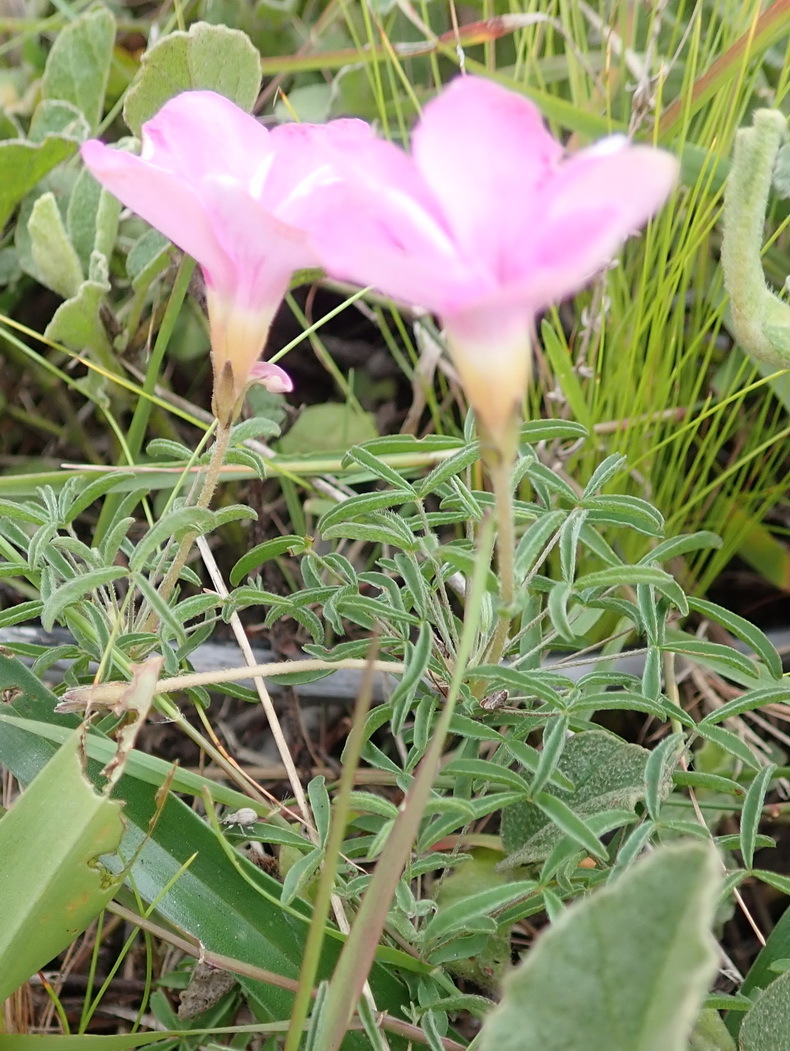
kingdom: Plantae
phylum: Tracheophyta
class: Magnoliopsida
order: Oxalidales
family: Oxalidaceae
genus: Oxalis
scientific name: Oxalis ciliaris
